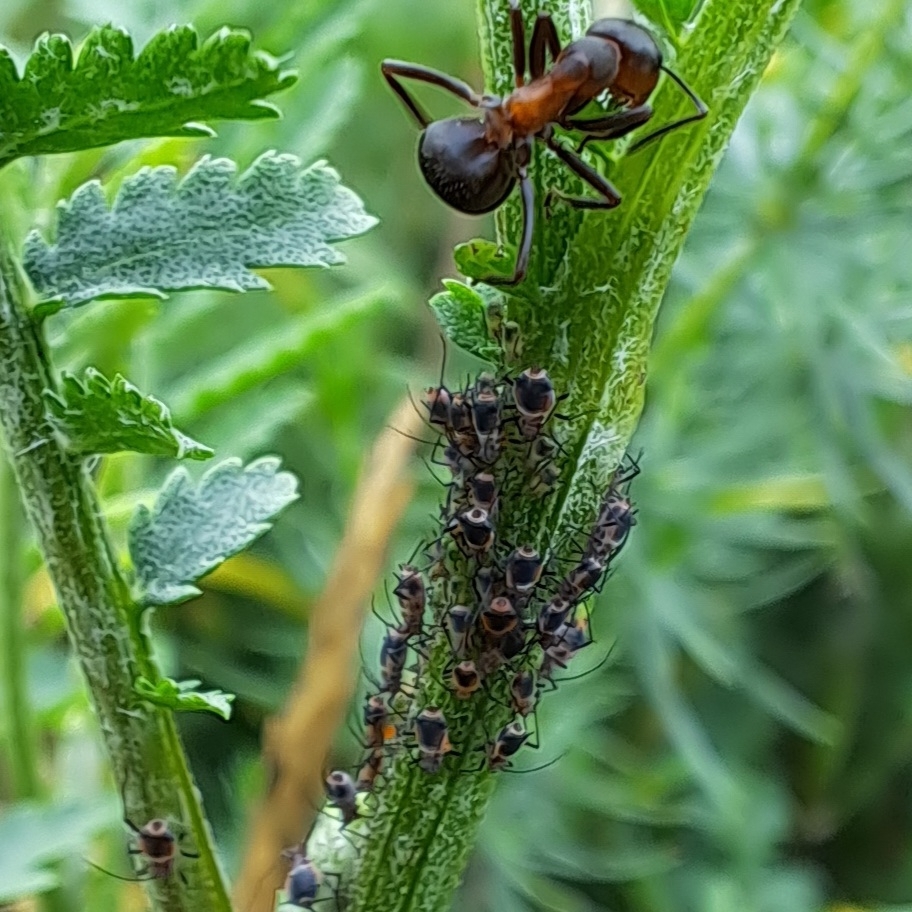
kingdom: Animalia
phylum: Arthropoda
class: Insecta
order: Hemiptera
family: Aphididae
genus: Metopeurum
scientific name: Metopeurum fuscoviride
